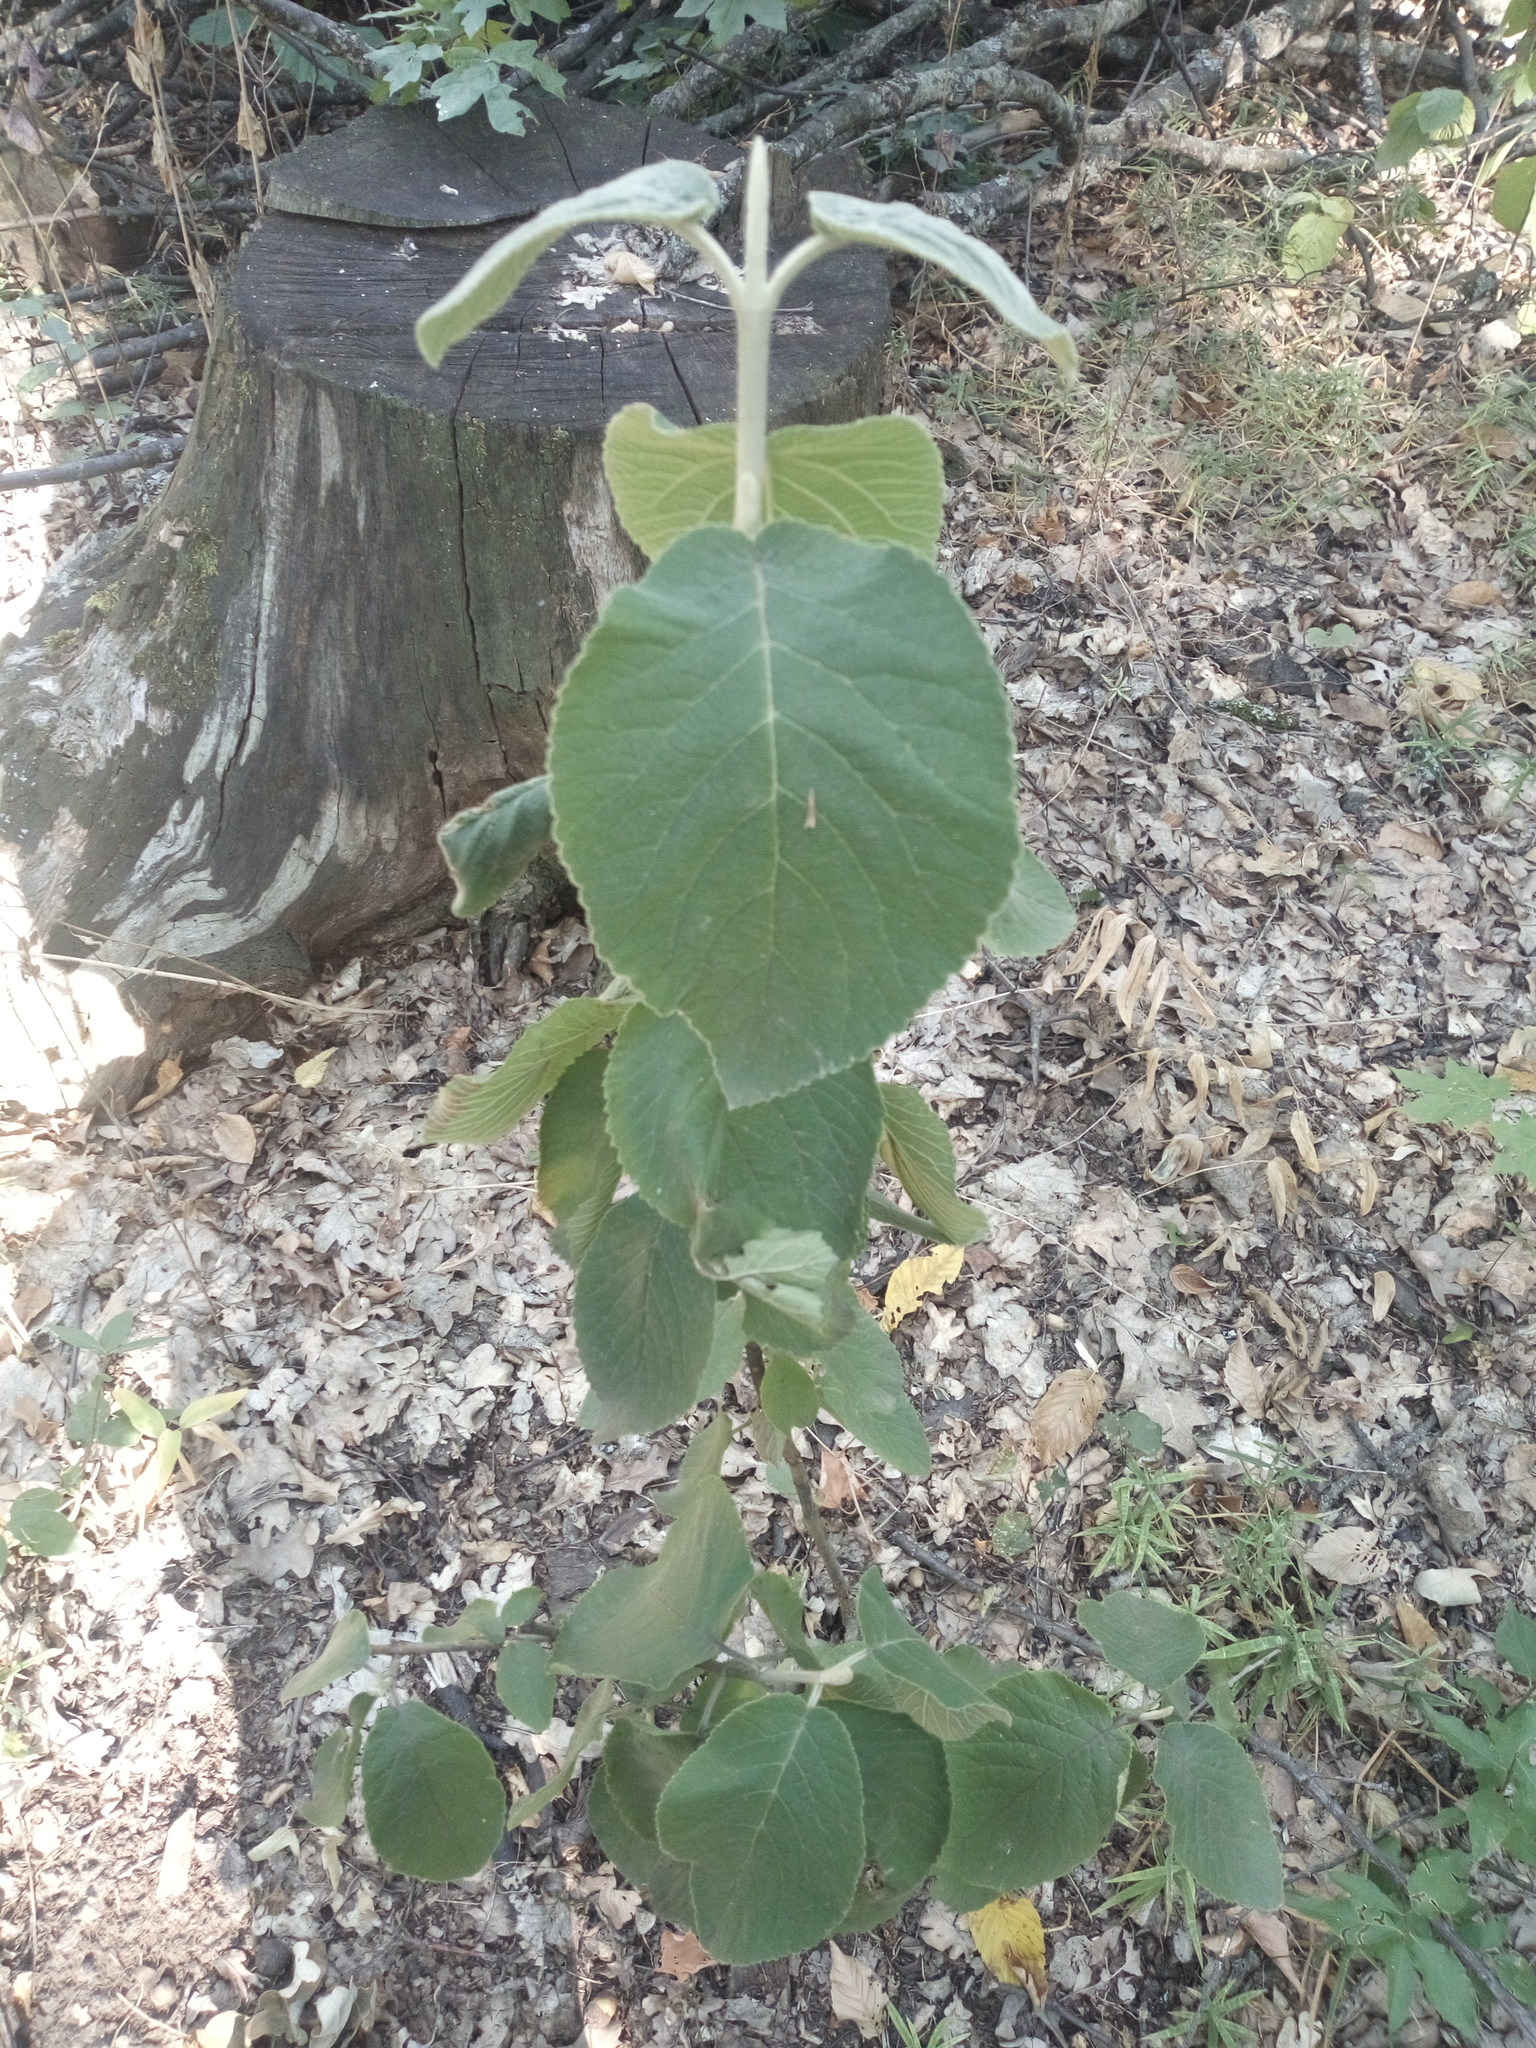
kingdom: Plantae
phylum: Tracheophyta
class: Magnoliopsida
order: Dipsacales
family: Viburnaceae
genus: Viburnum
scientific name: Viburnum lantana
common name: Wayfaring tree
